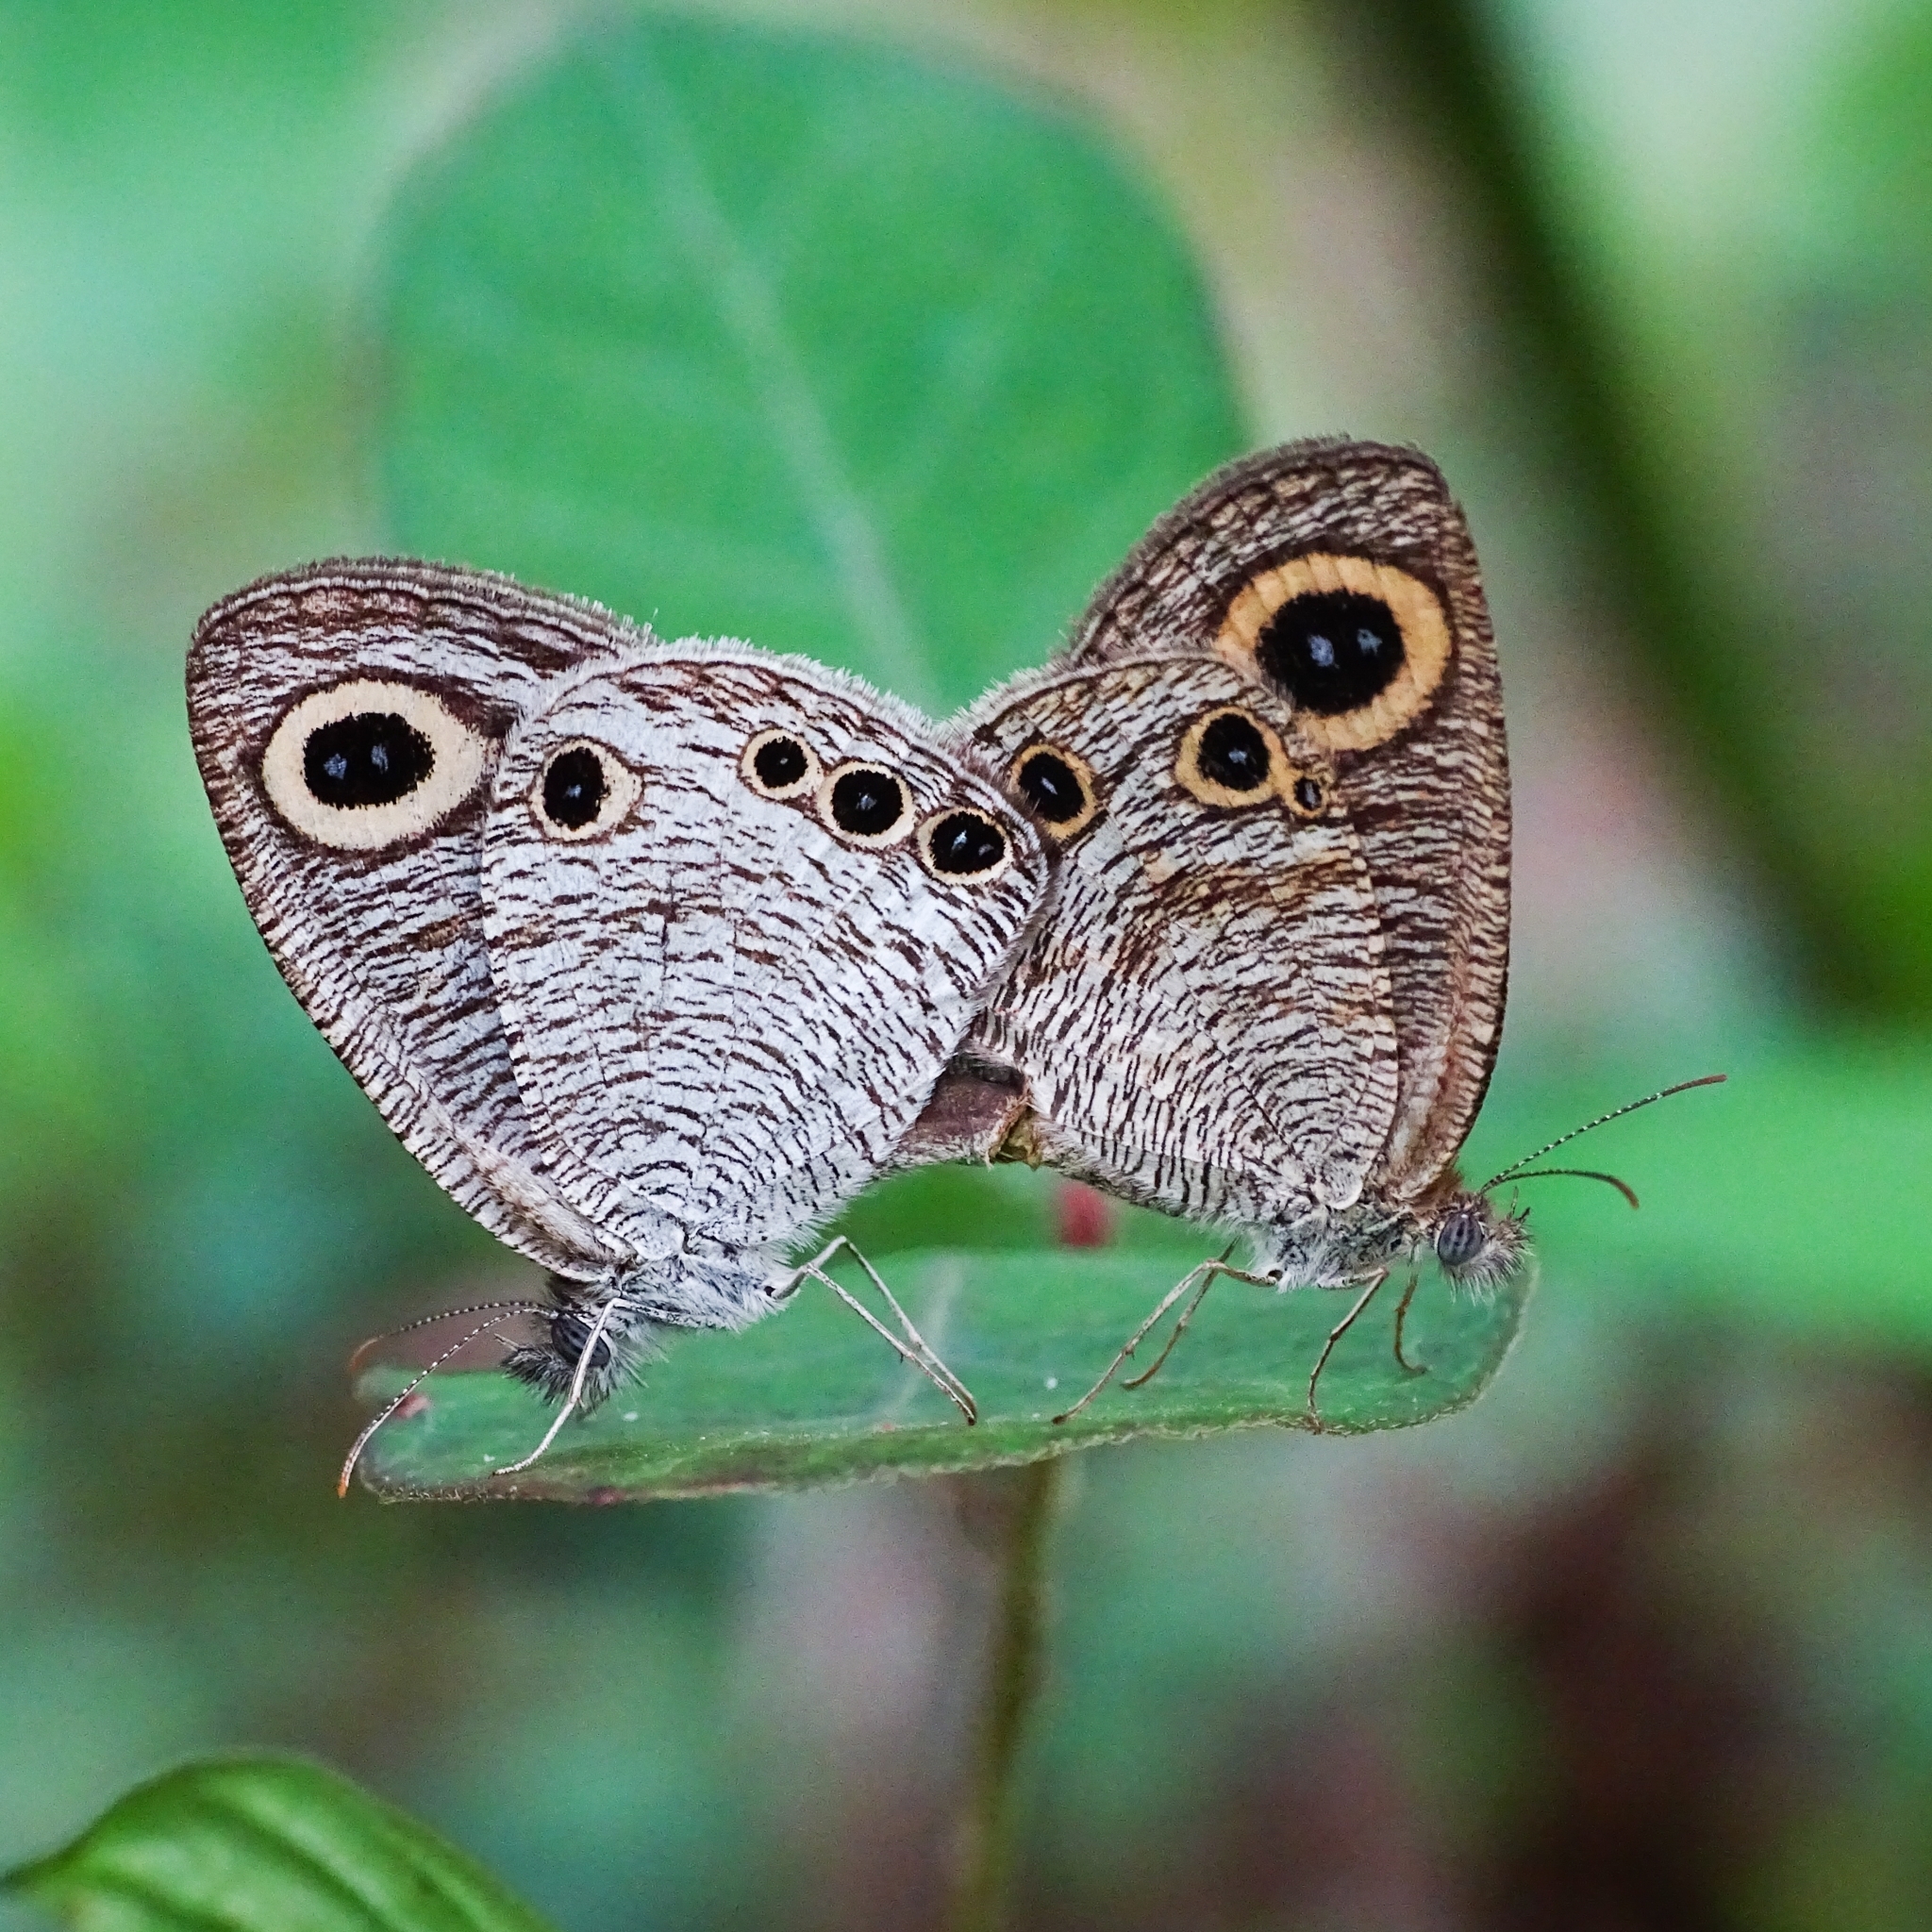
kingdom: Animalia
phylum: Arthropoda
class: Insecta
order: Lepidoptera
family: Nymphalidae
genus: Ypthima
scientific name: Ypthima huebneri
